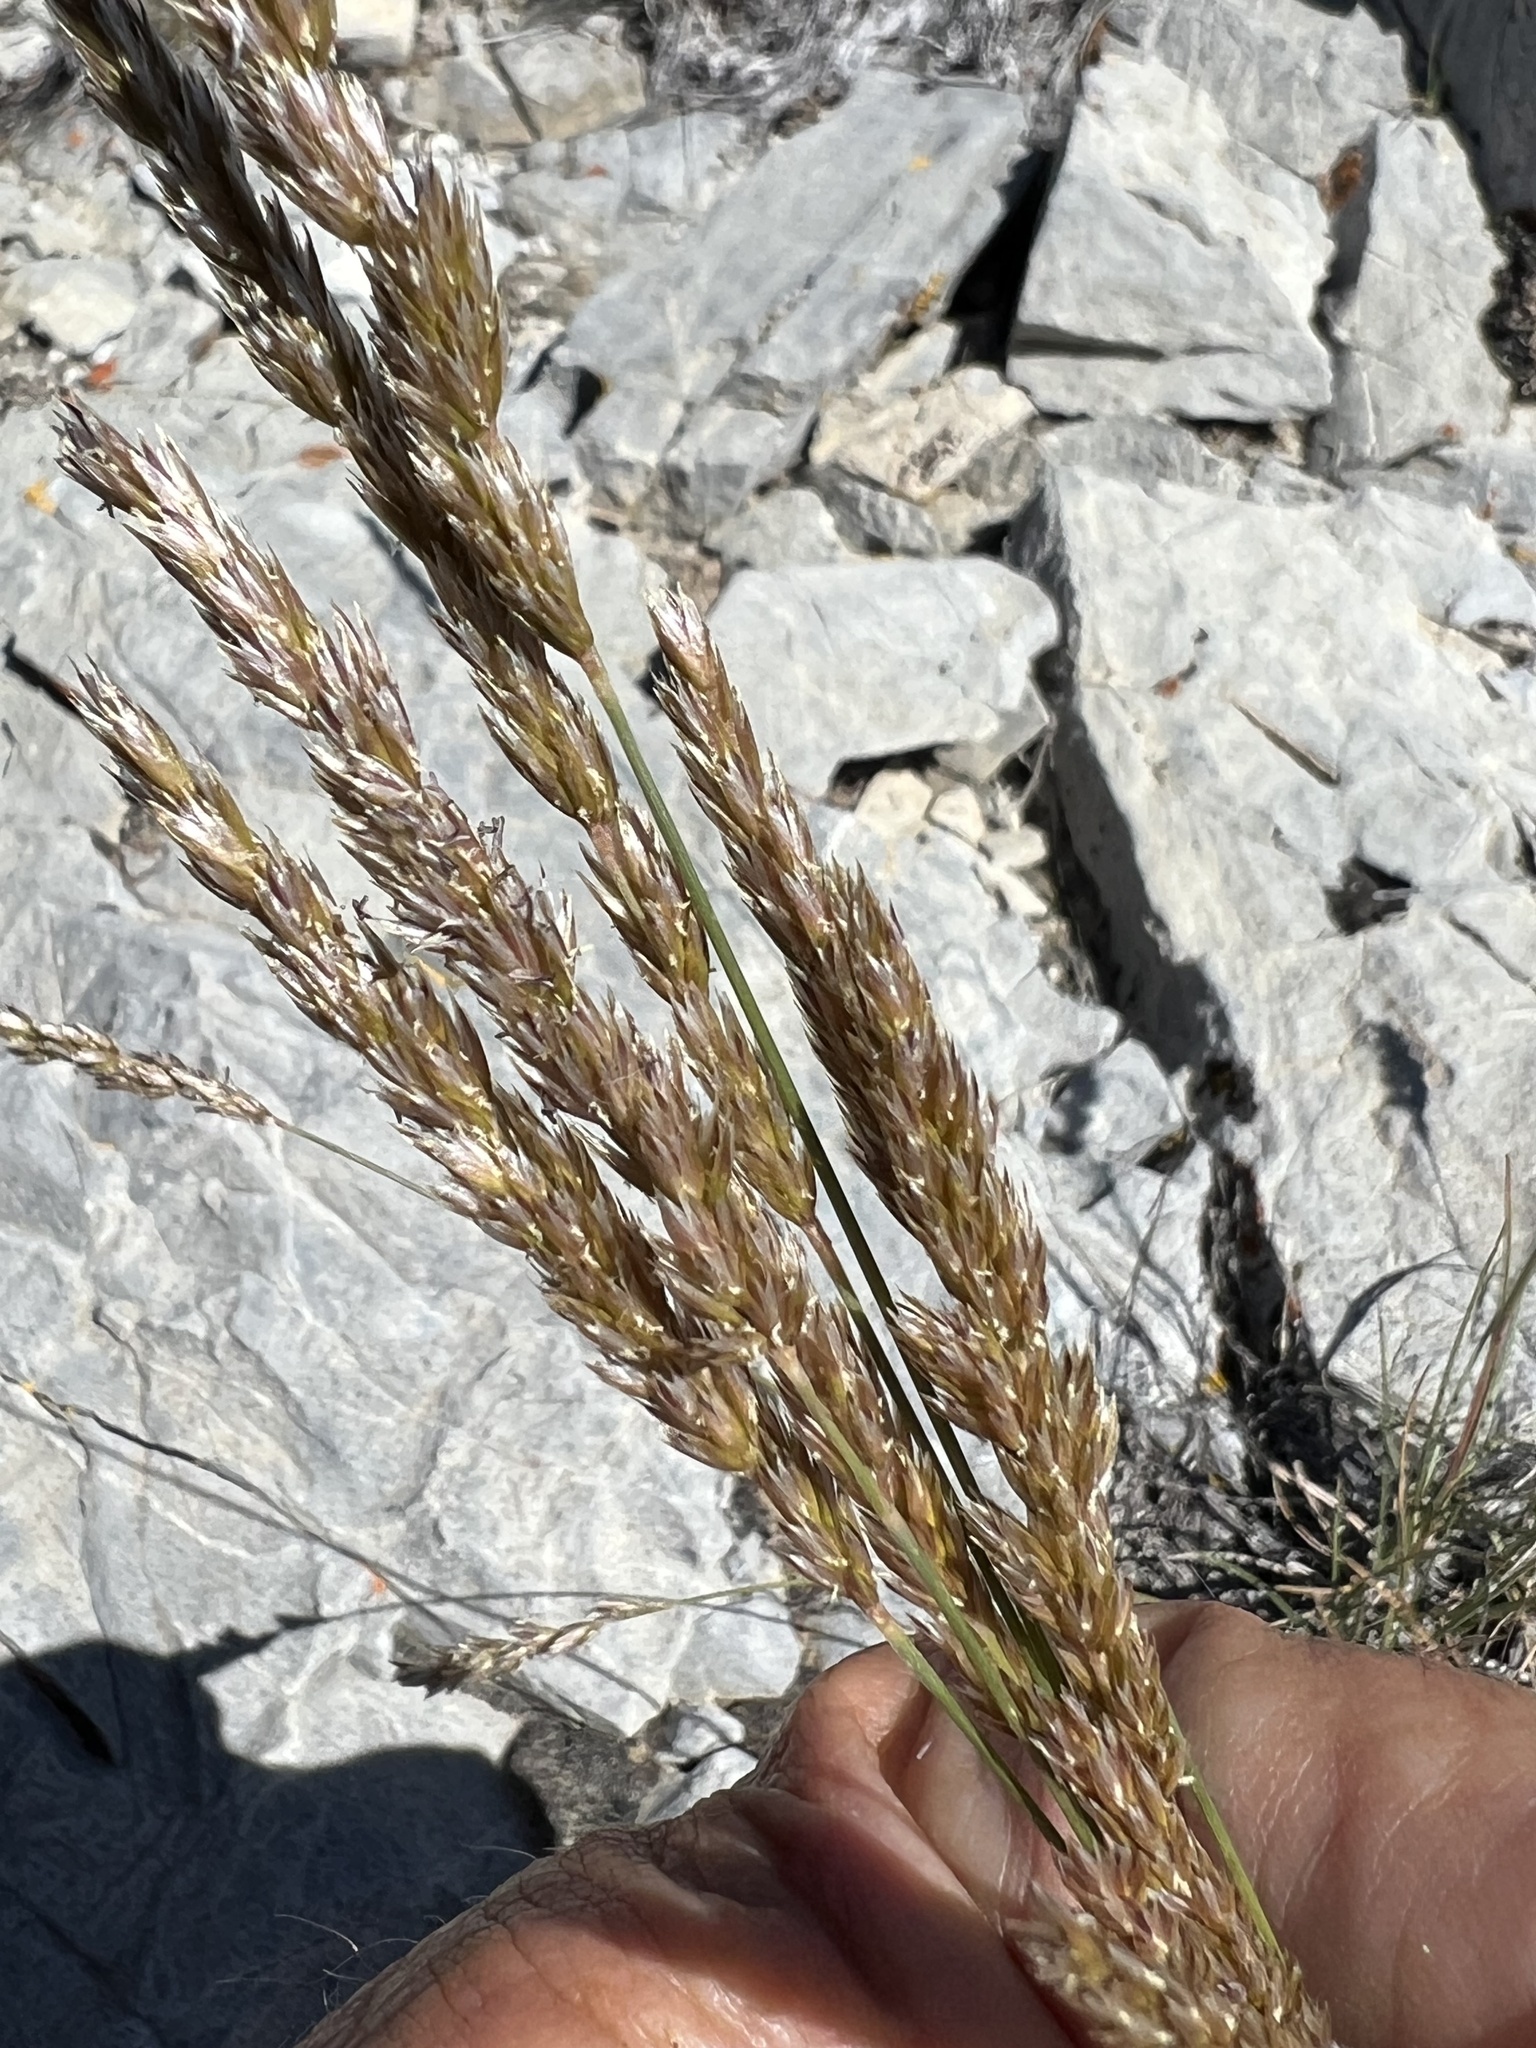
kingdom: Plantae
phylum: Tracheophyta
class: Liliopsida
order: Poales
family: Poaceae
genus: Koeleria
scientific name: Koeleria macrantha
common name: Crested hair-grass
